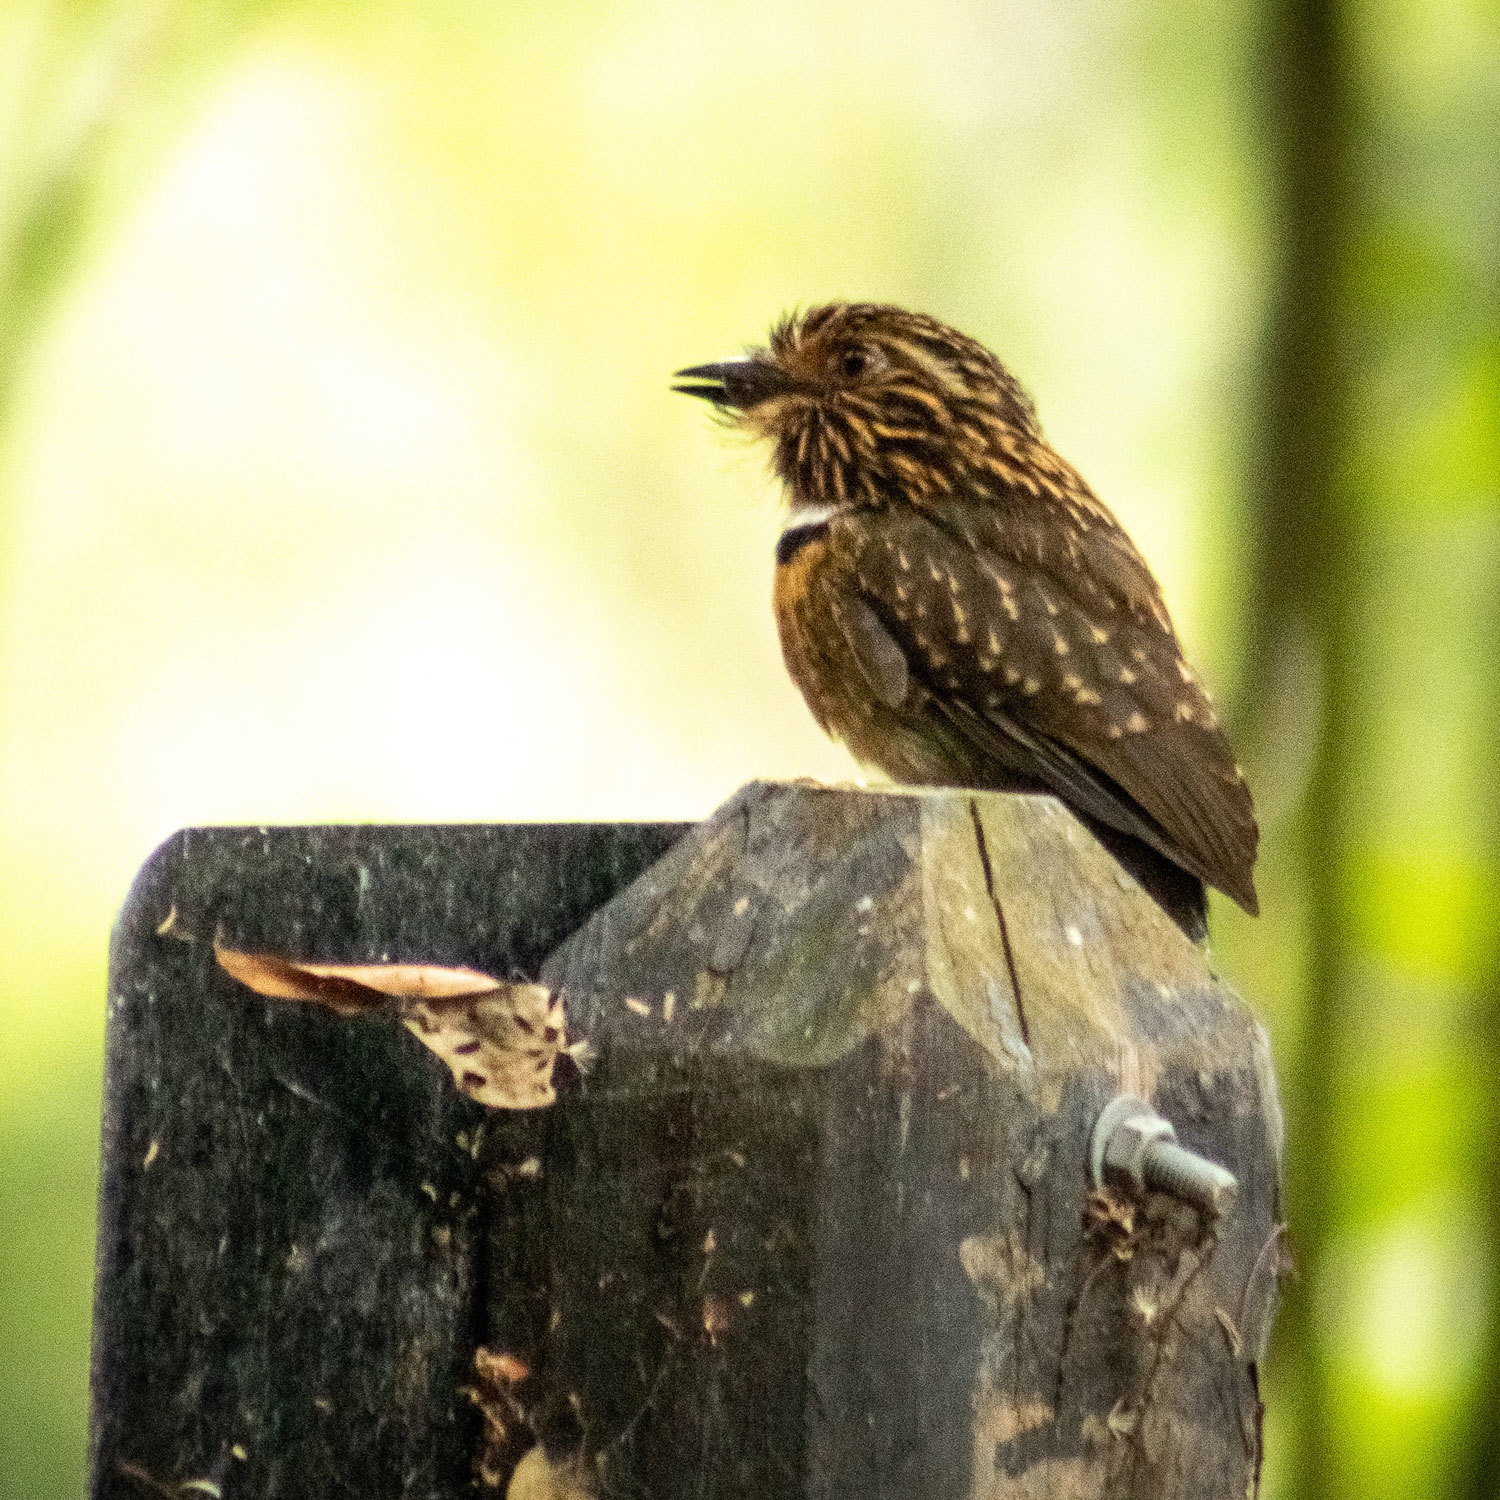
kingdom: Animalia
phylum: Chordata
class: Aves
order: Piciformes
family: Bucconidae
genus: Malacoptila
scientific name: Malacoptila striata
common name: Crescent-chested puffbird
